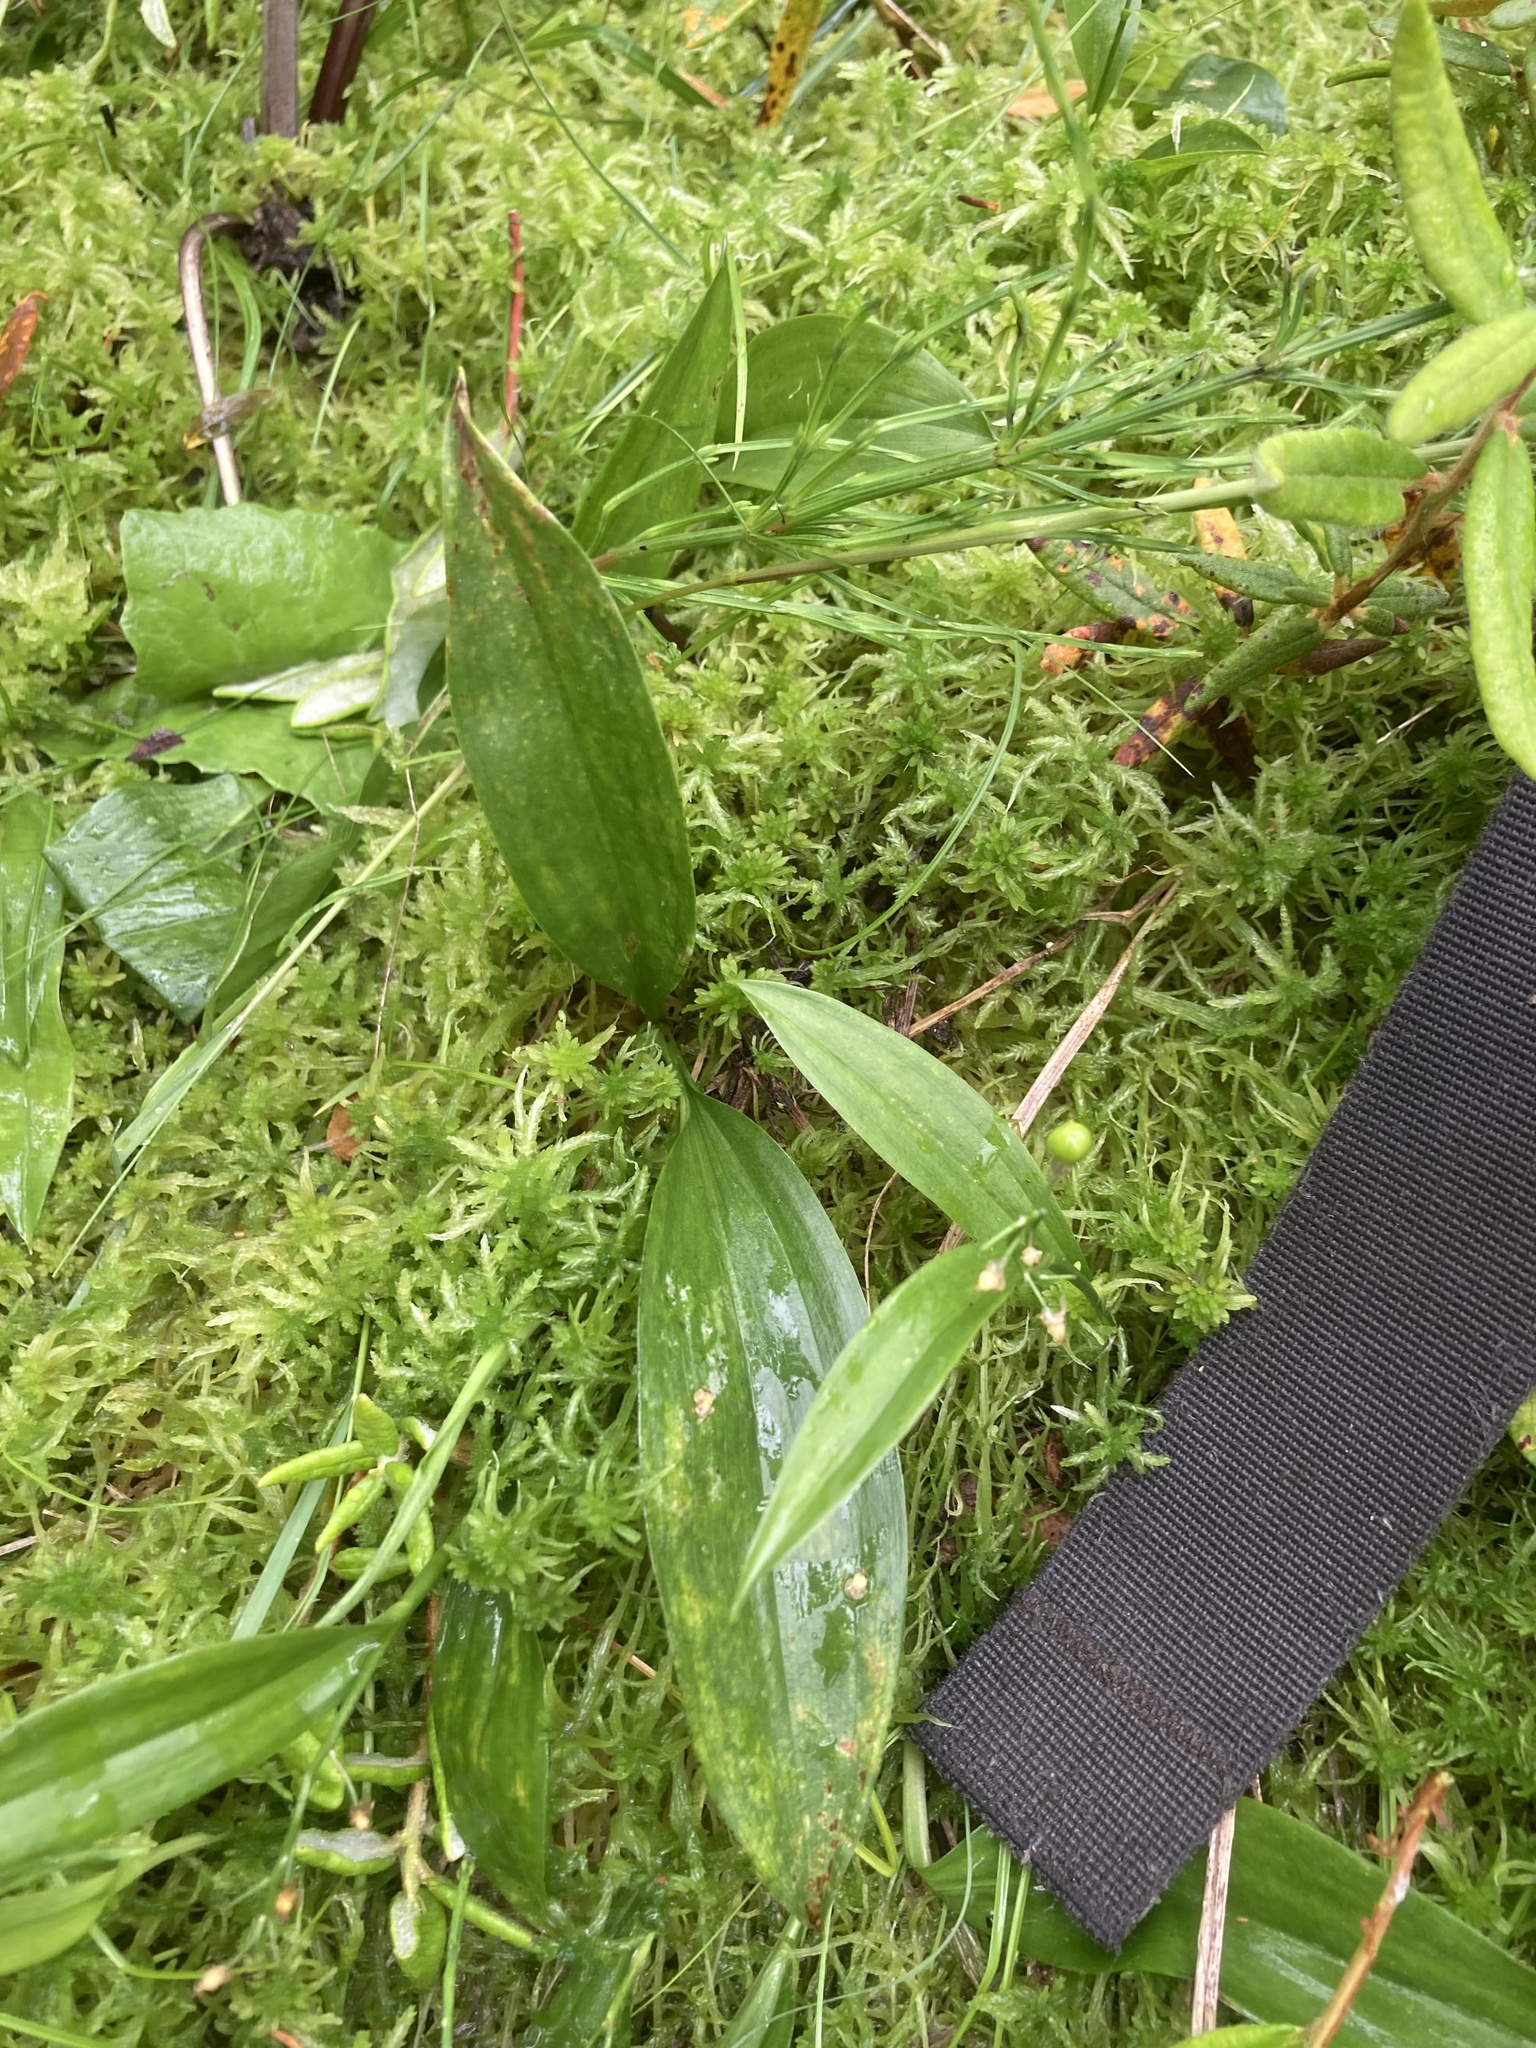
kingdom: Plantae
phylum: Tracheophyta
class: Liliopsida
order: Asparagales
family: Asparagaceae
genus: Maianthemum
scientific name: Maianthemum trifolium
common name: Swamp false solomon's seal
